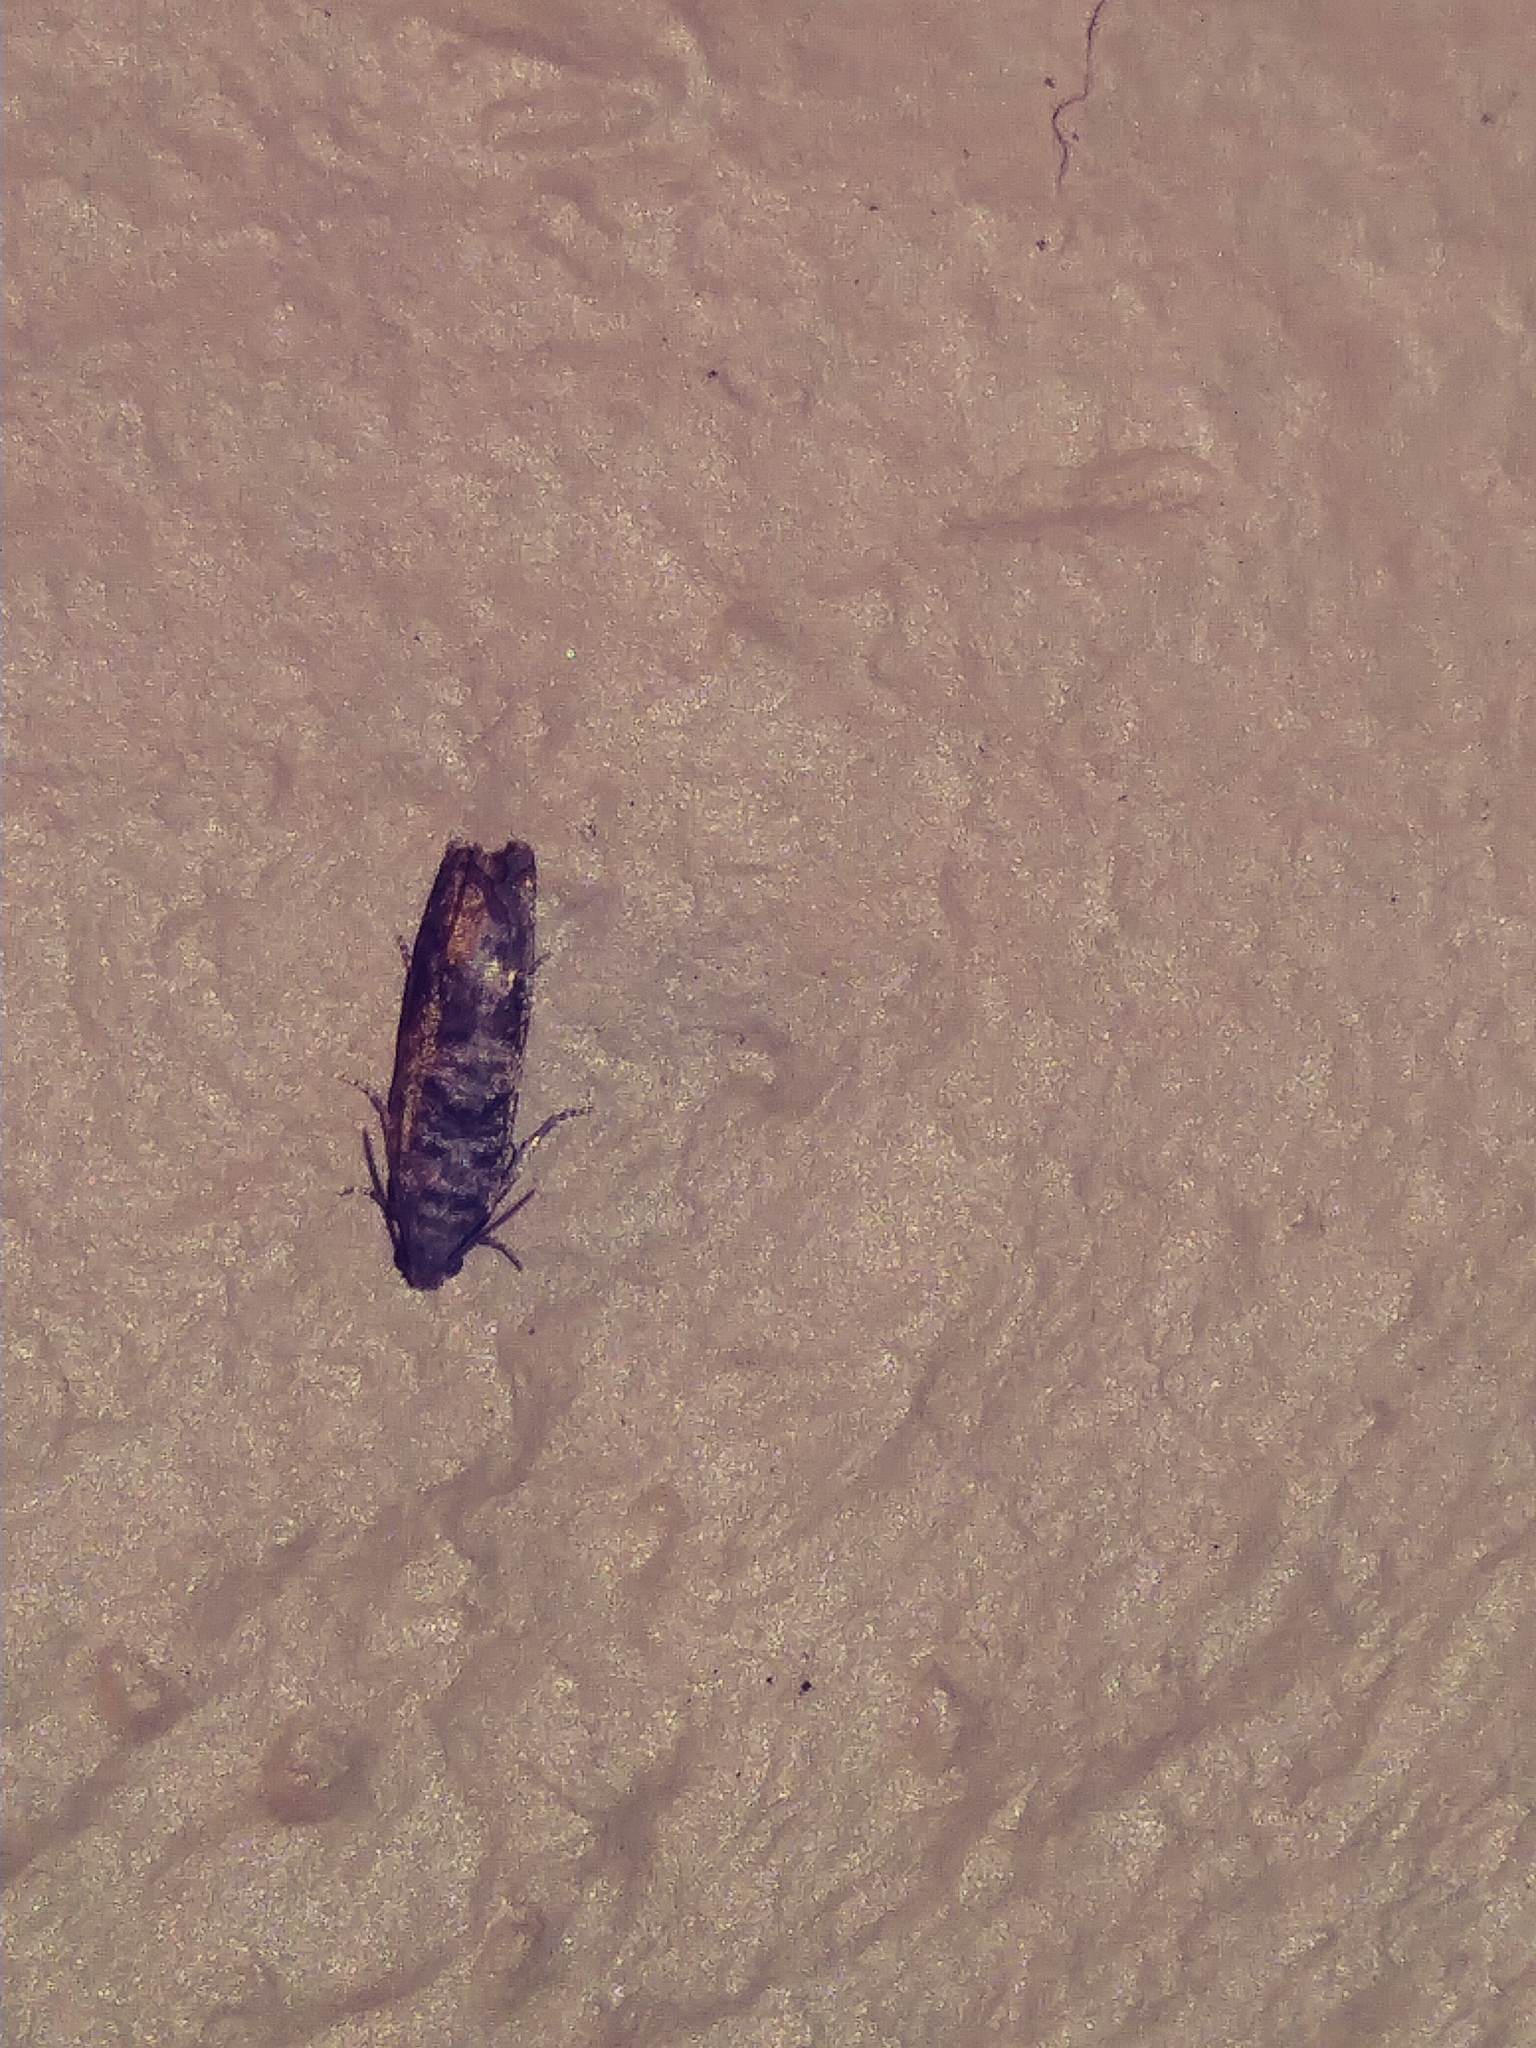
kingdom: Animalia
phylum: Arthropoda
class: Insecta
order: Lepidoptera
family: Noctuidae
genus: Aspila
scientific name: Aspila
